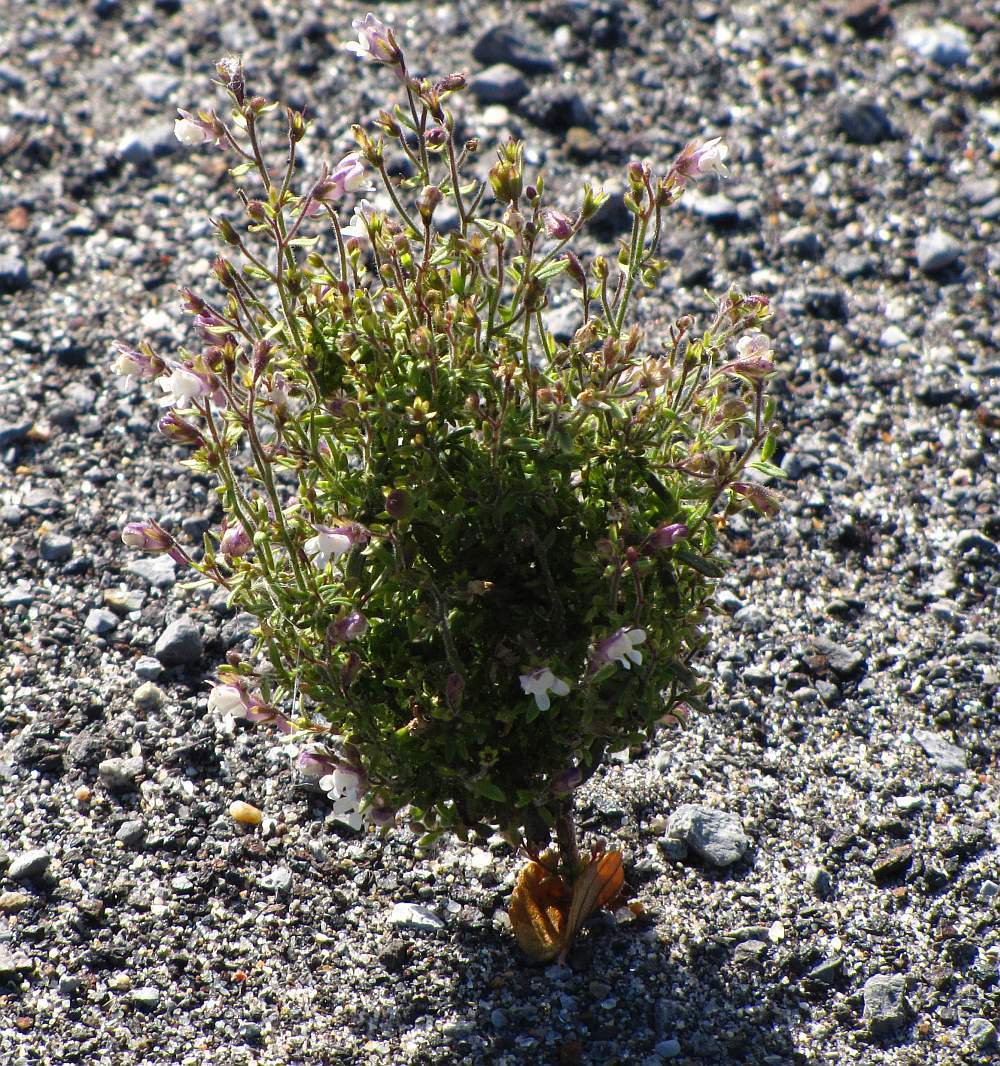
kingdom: Plantae
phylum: Tracheophyta
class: Magnoliopsida
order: Lamiales
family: Plantaginaceae
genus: Chaenorhinum
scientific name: Chaenorhinum minus
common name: Dwarf snapdragon
